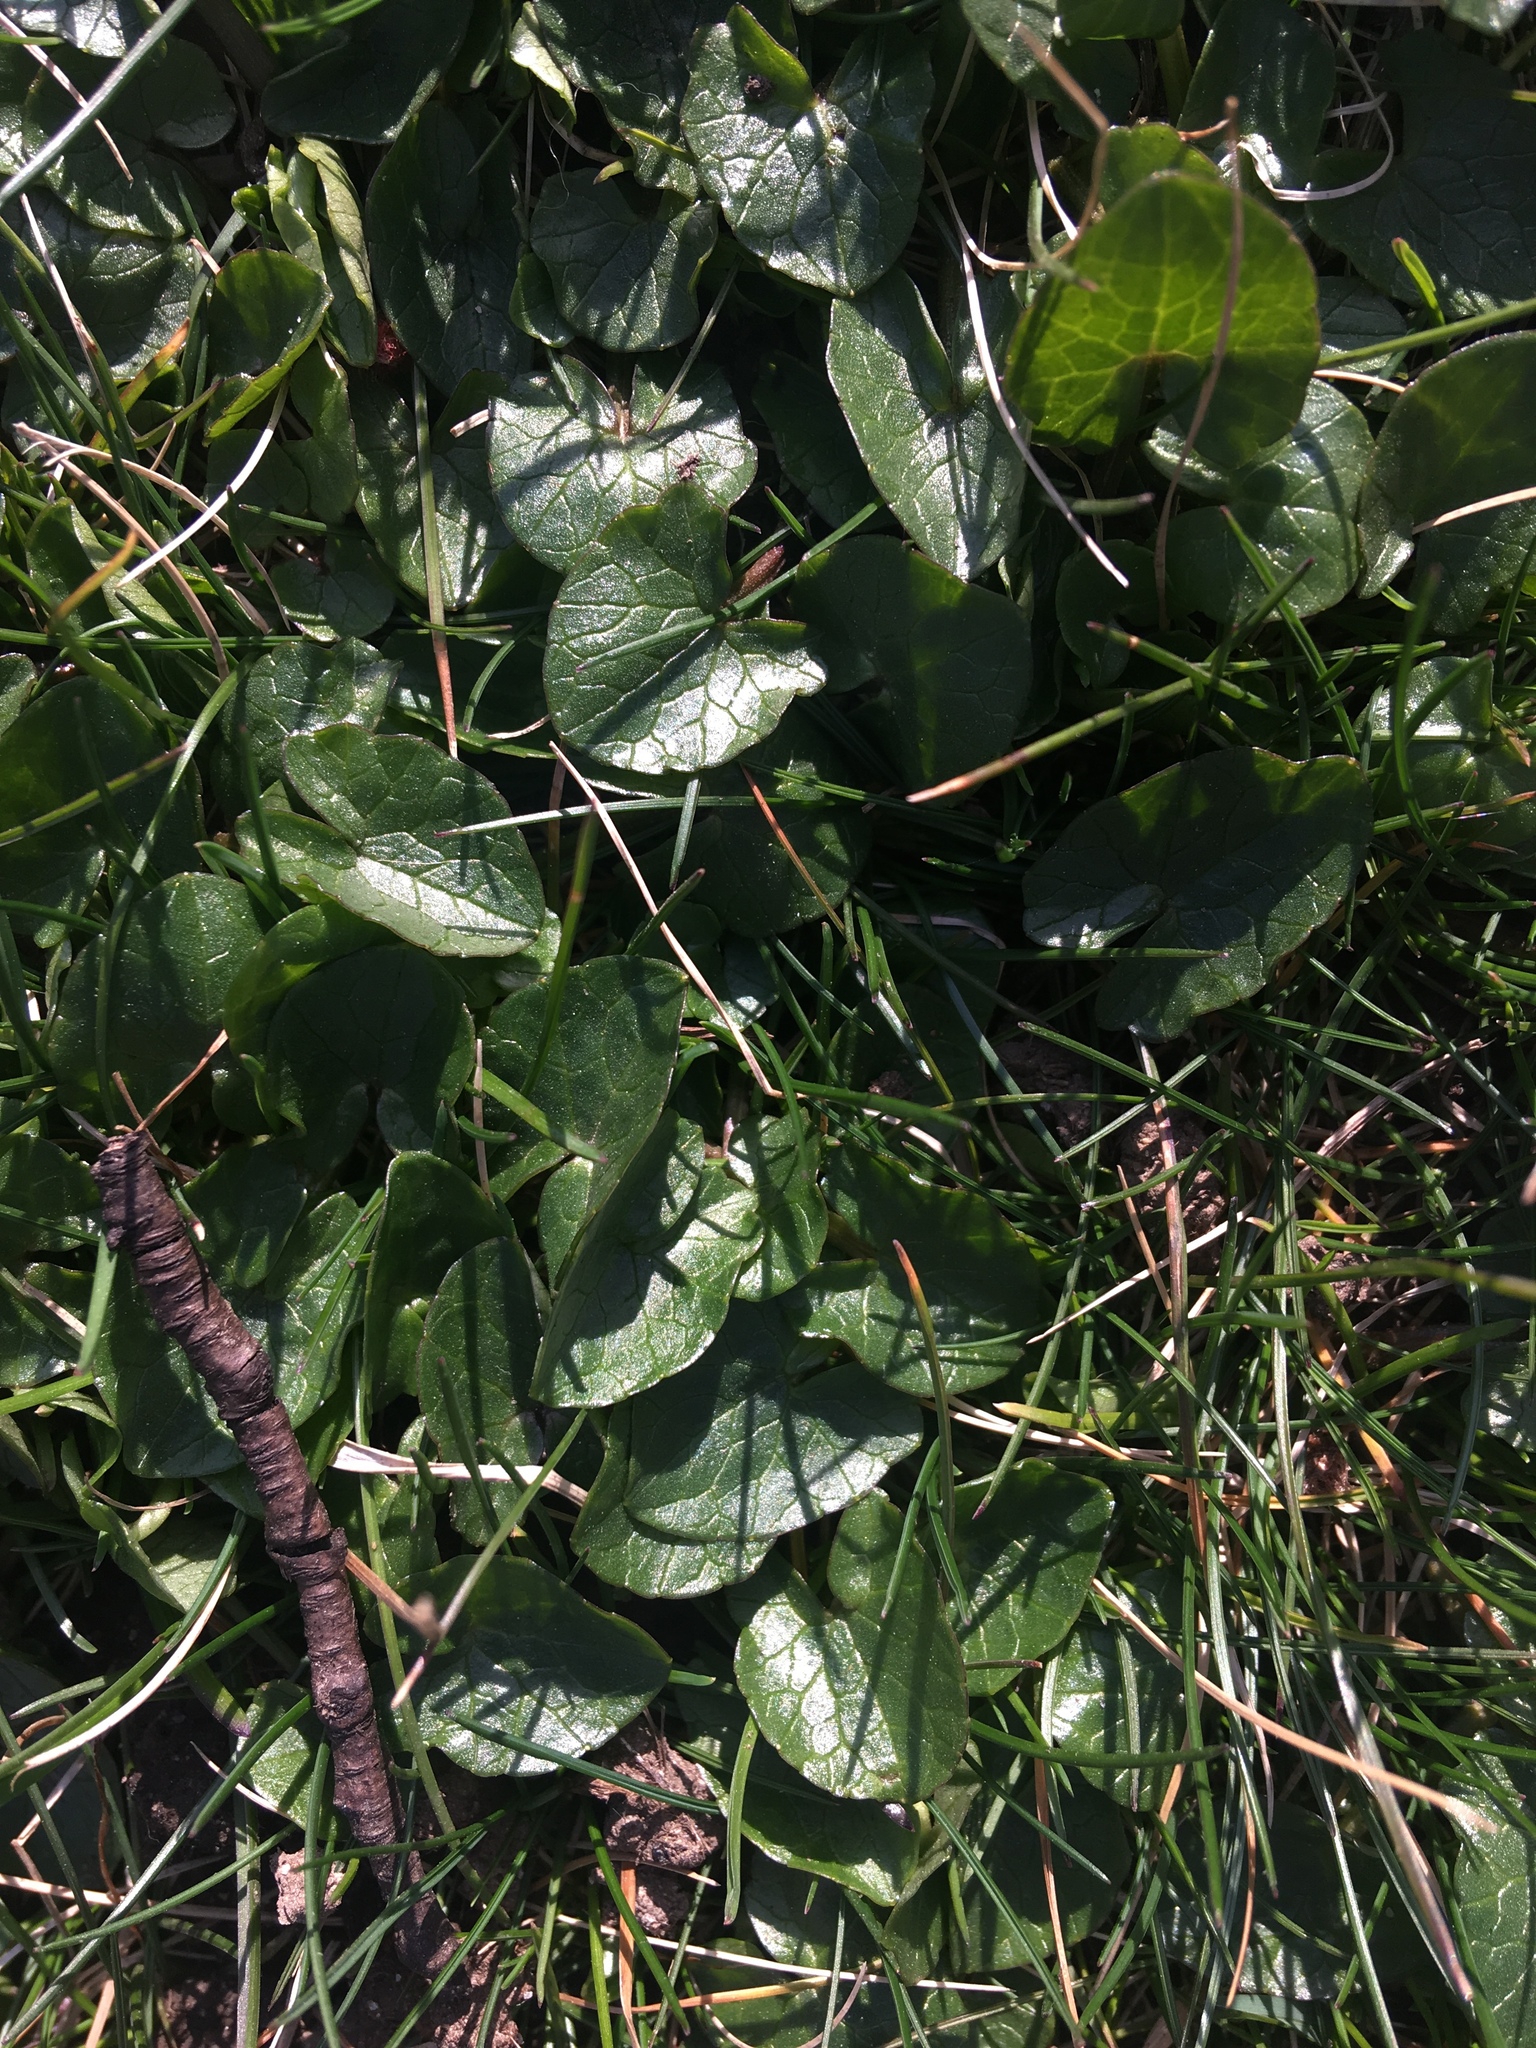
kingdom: Plantae
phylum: Tracheophyta
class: Magnoliopsida
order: Ranunculales
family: Ranunculaceae
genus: Ficaria
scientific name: Ficaria verna
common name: Lesser celandine
